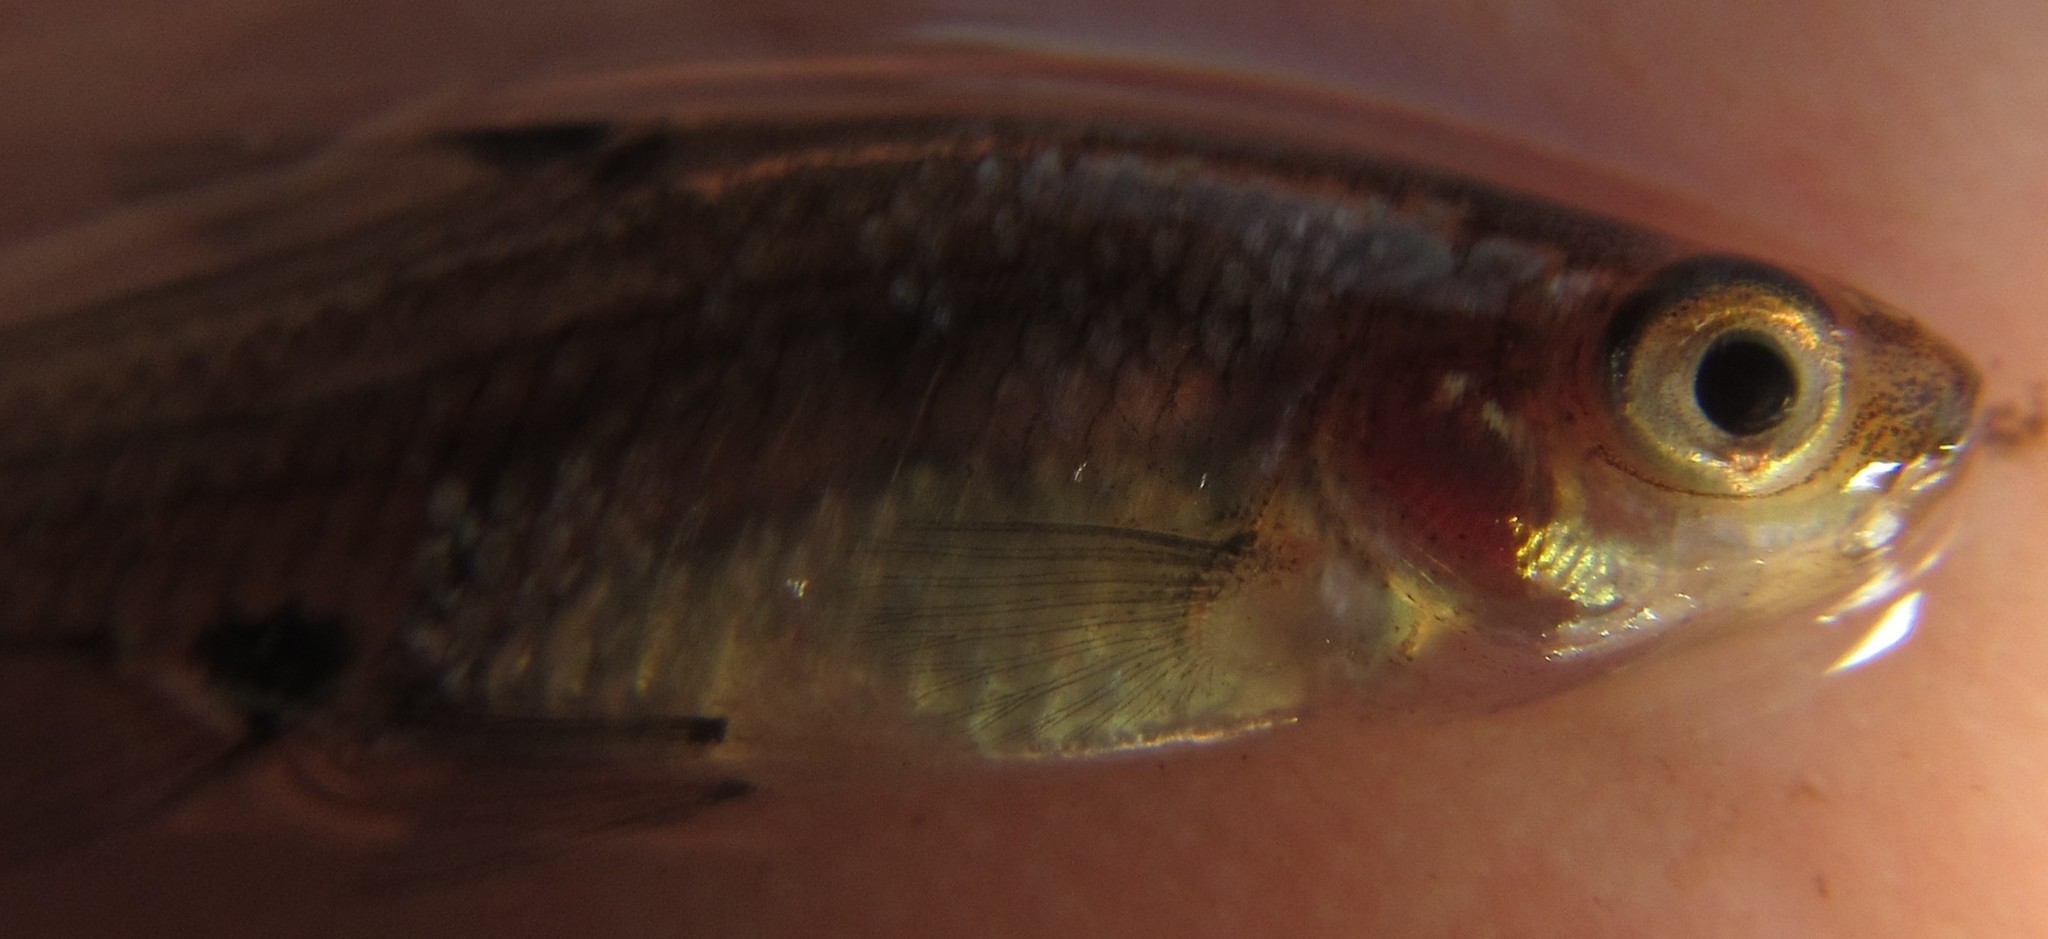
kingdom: Animalia
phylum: Chordata
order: Cypriniformes
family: Cyprinidae
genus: Enteromius
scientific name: Enteromius haasianus
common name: Sickle-fin barb
